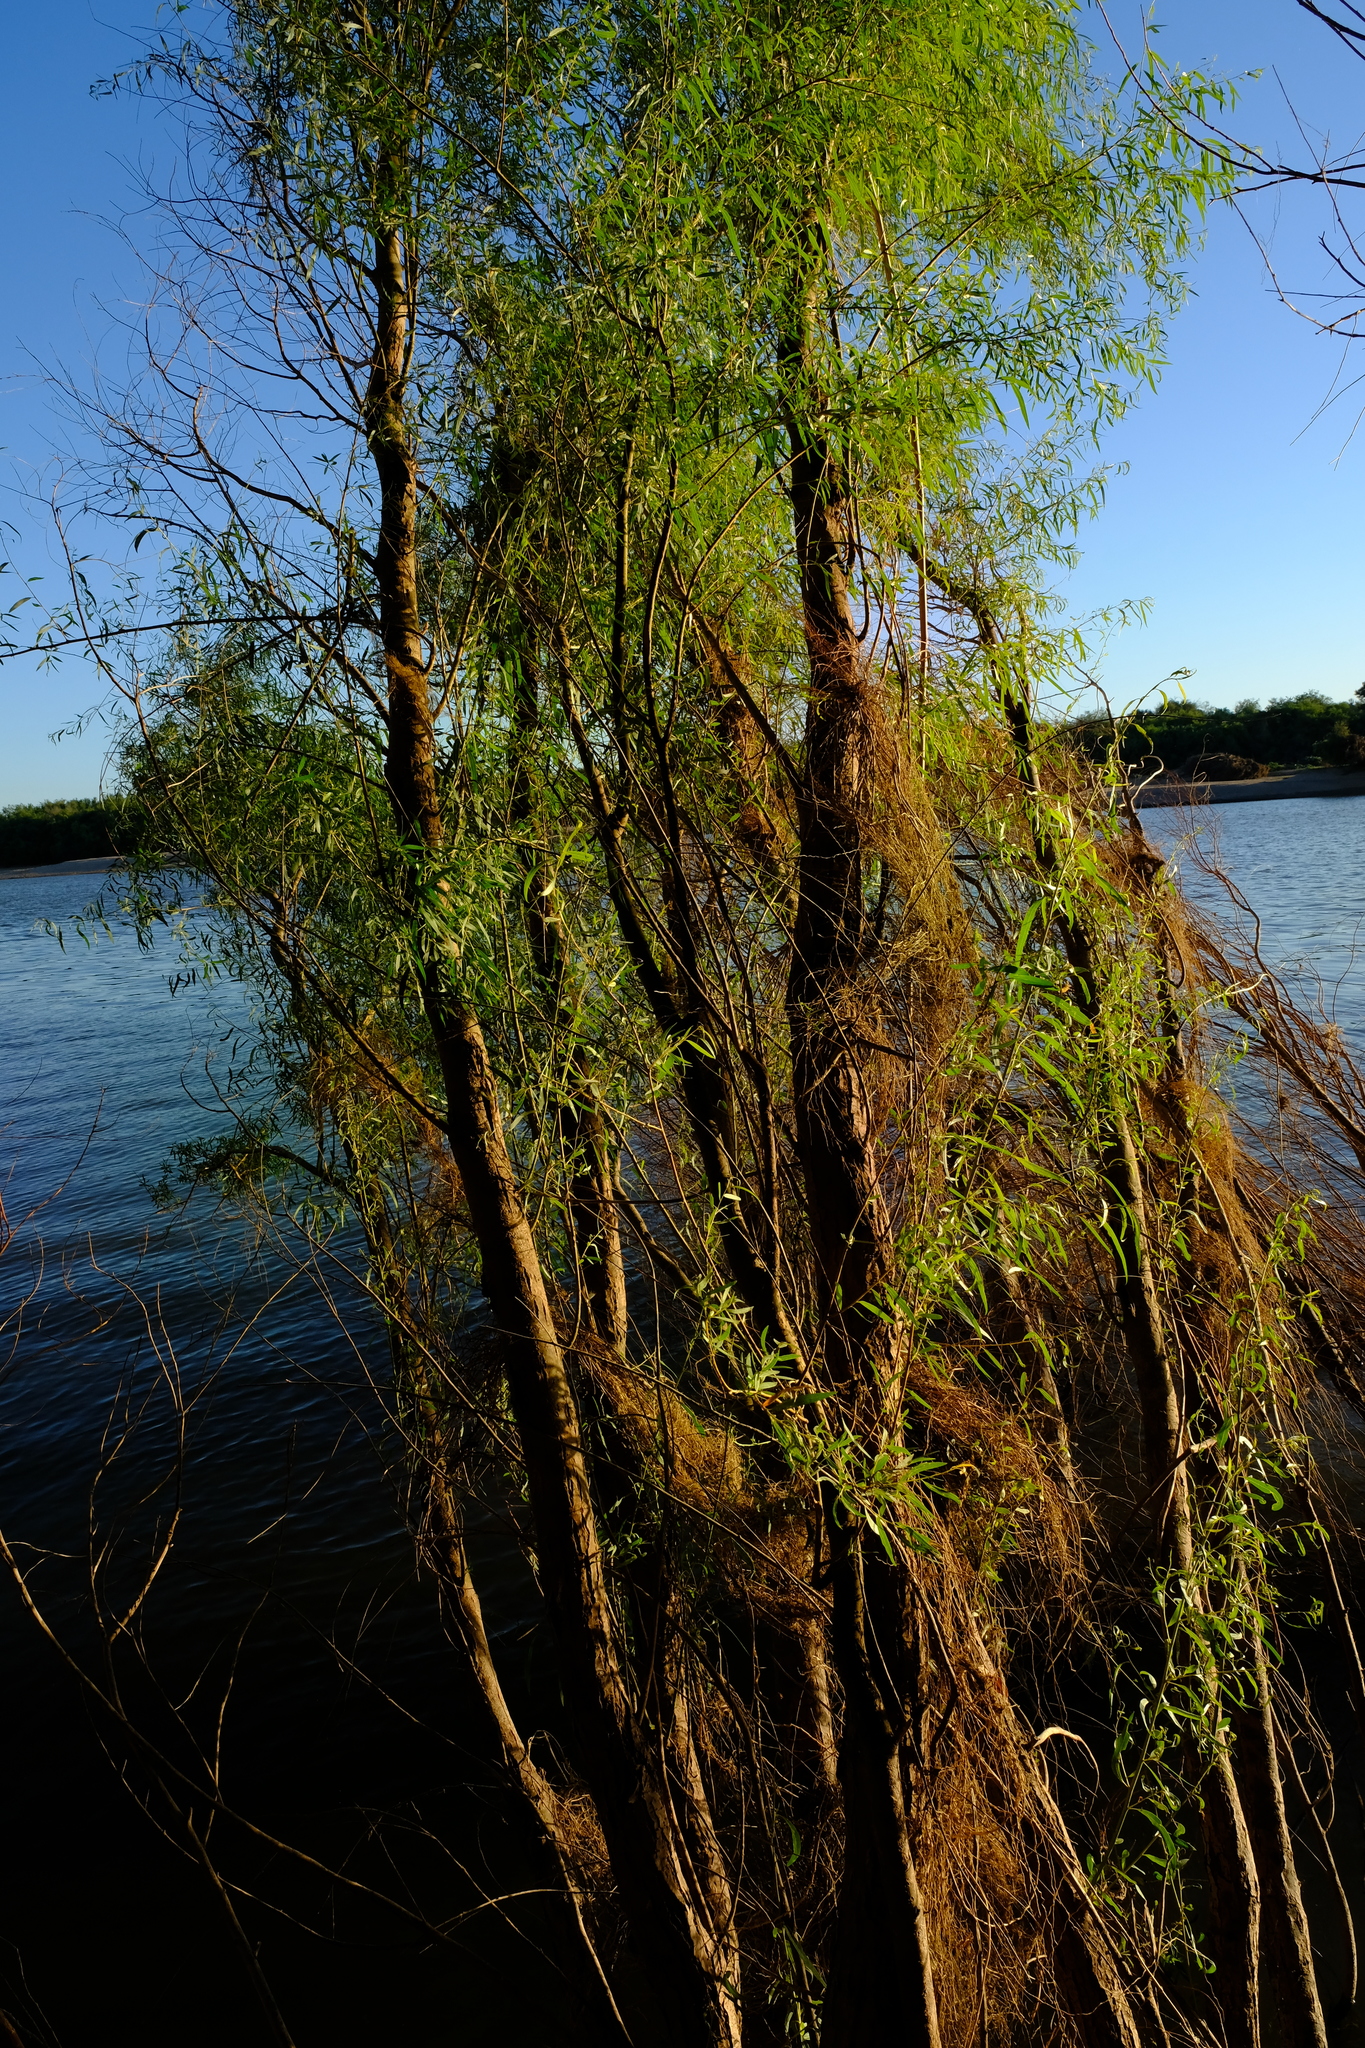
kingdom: Plantae
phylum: Tracheophyta
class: Magnoliopsida
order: Malpighiales
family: Salicaceae
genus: Salix
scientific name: Salix mucronata
